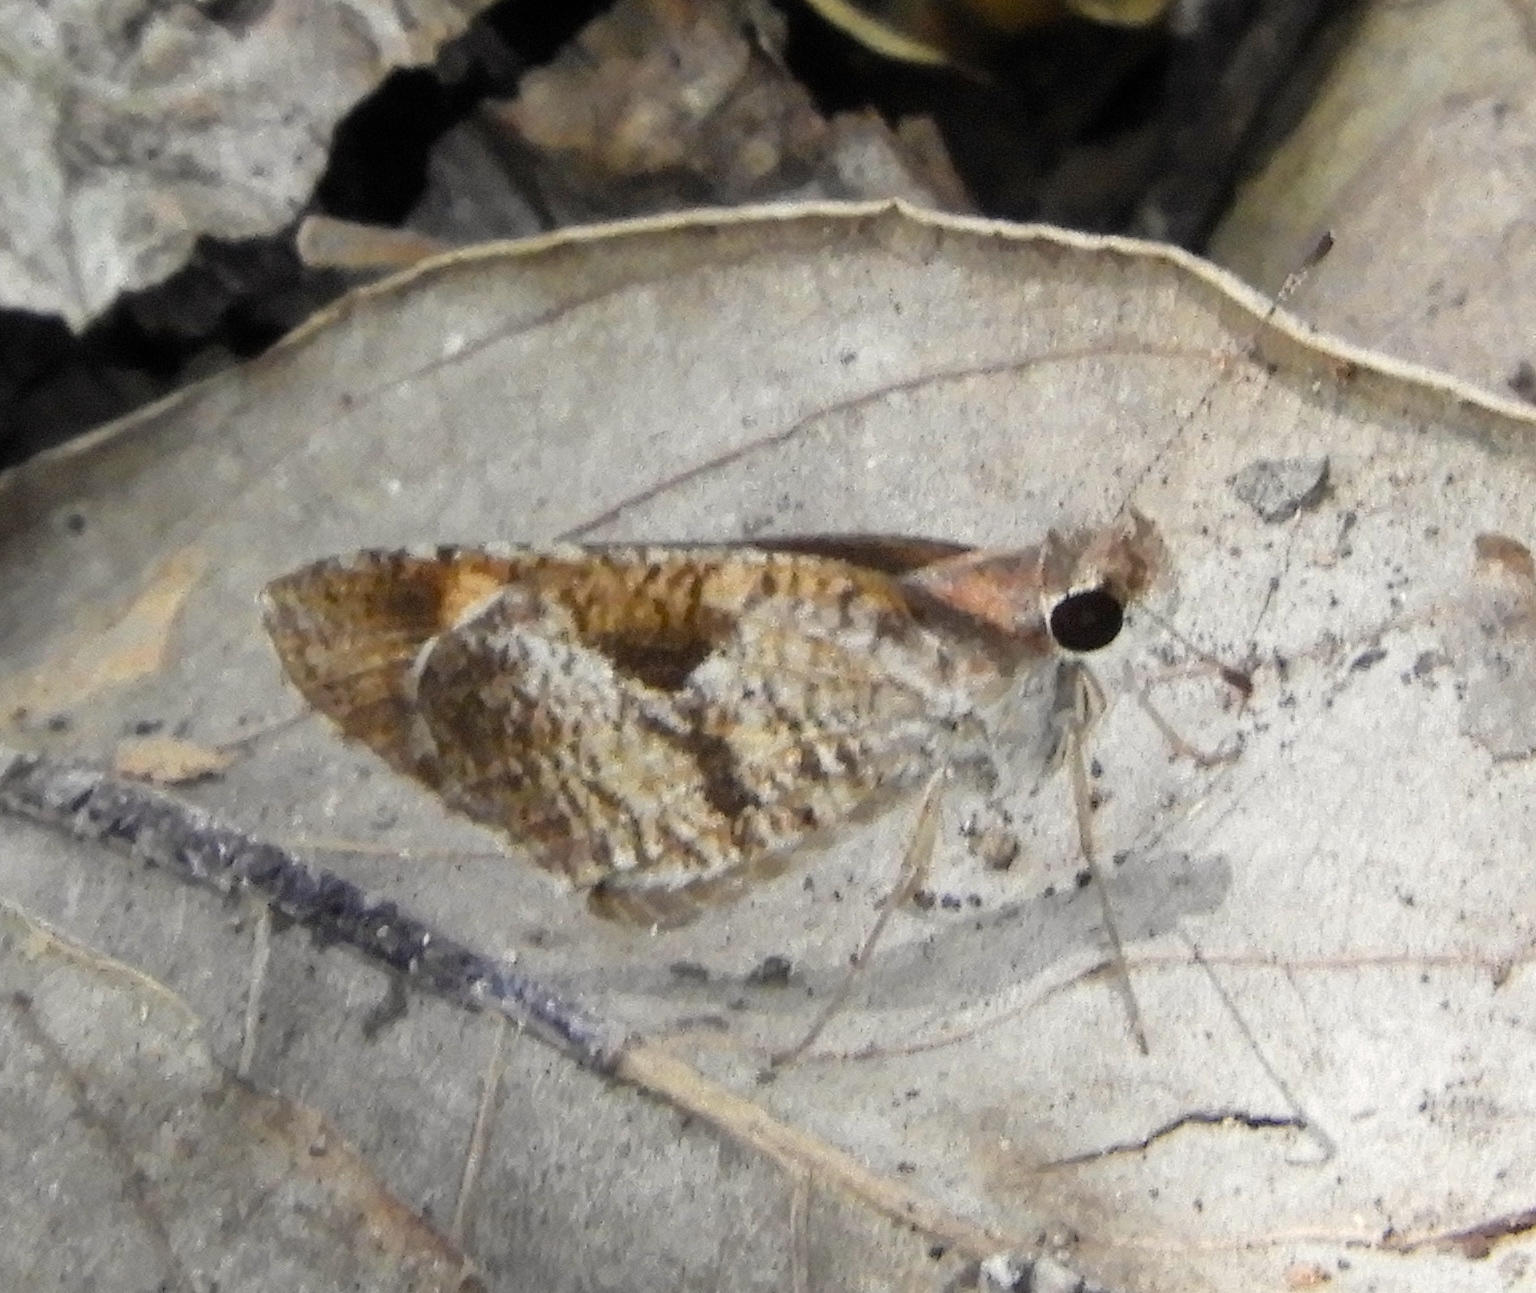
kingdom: Animalia
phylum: Arthropoda
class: Insecta
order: Lepidoptera
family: Hesperiidae
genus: Synapte
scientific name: Synapte syraces
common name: Faceted skipper
